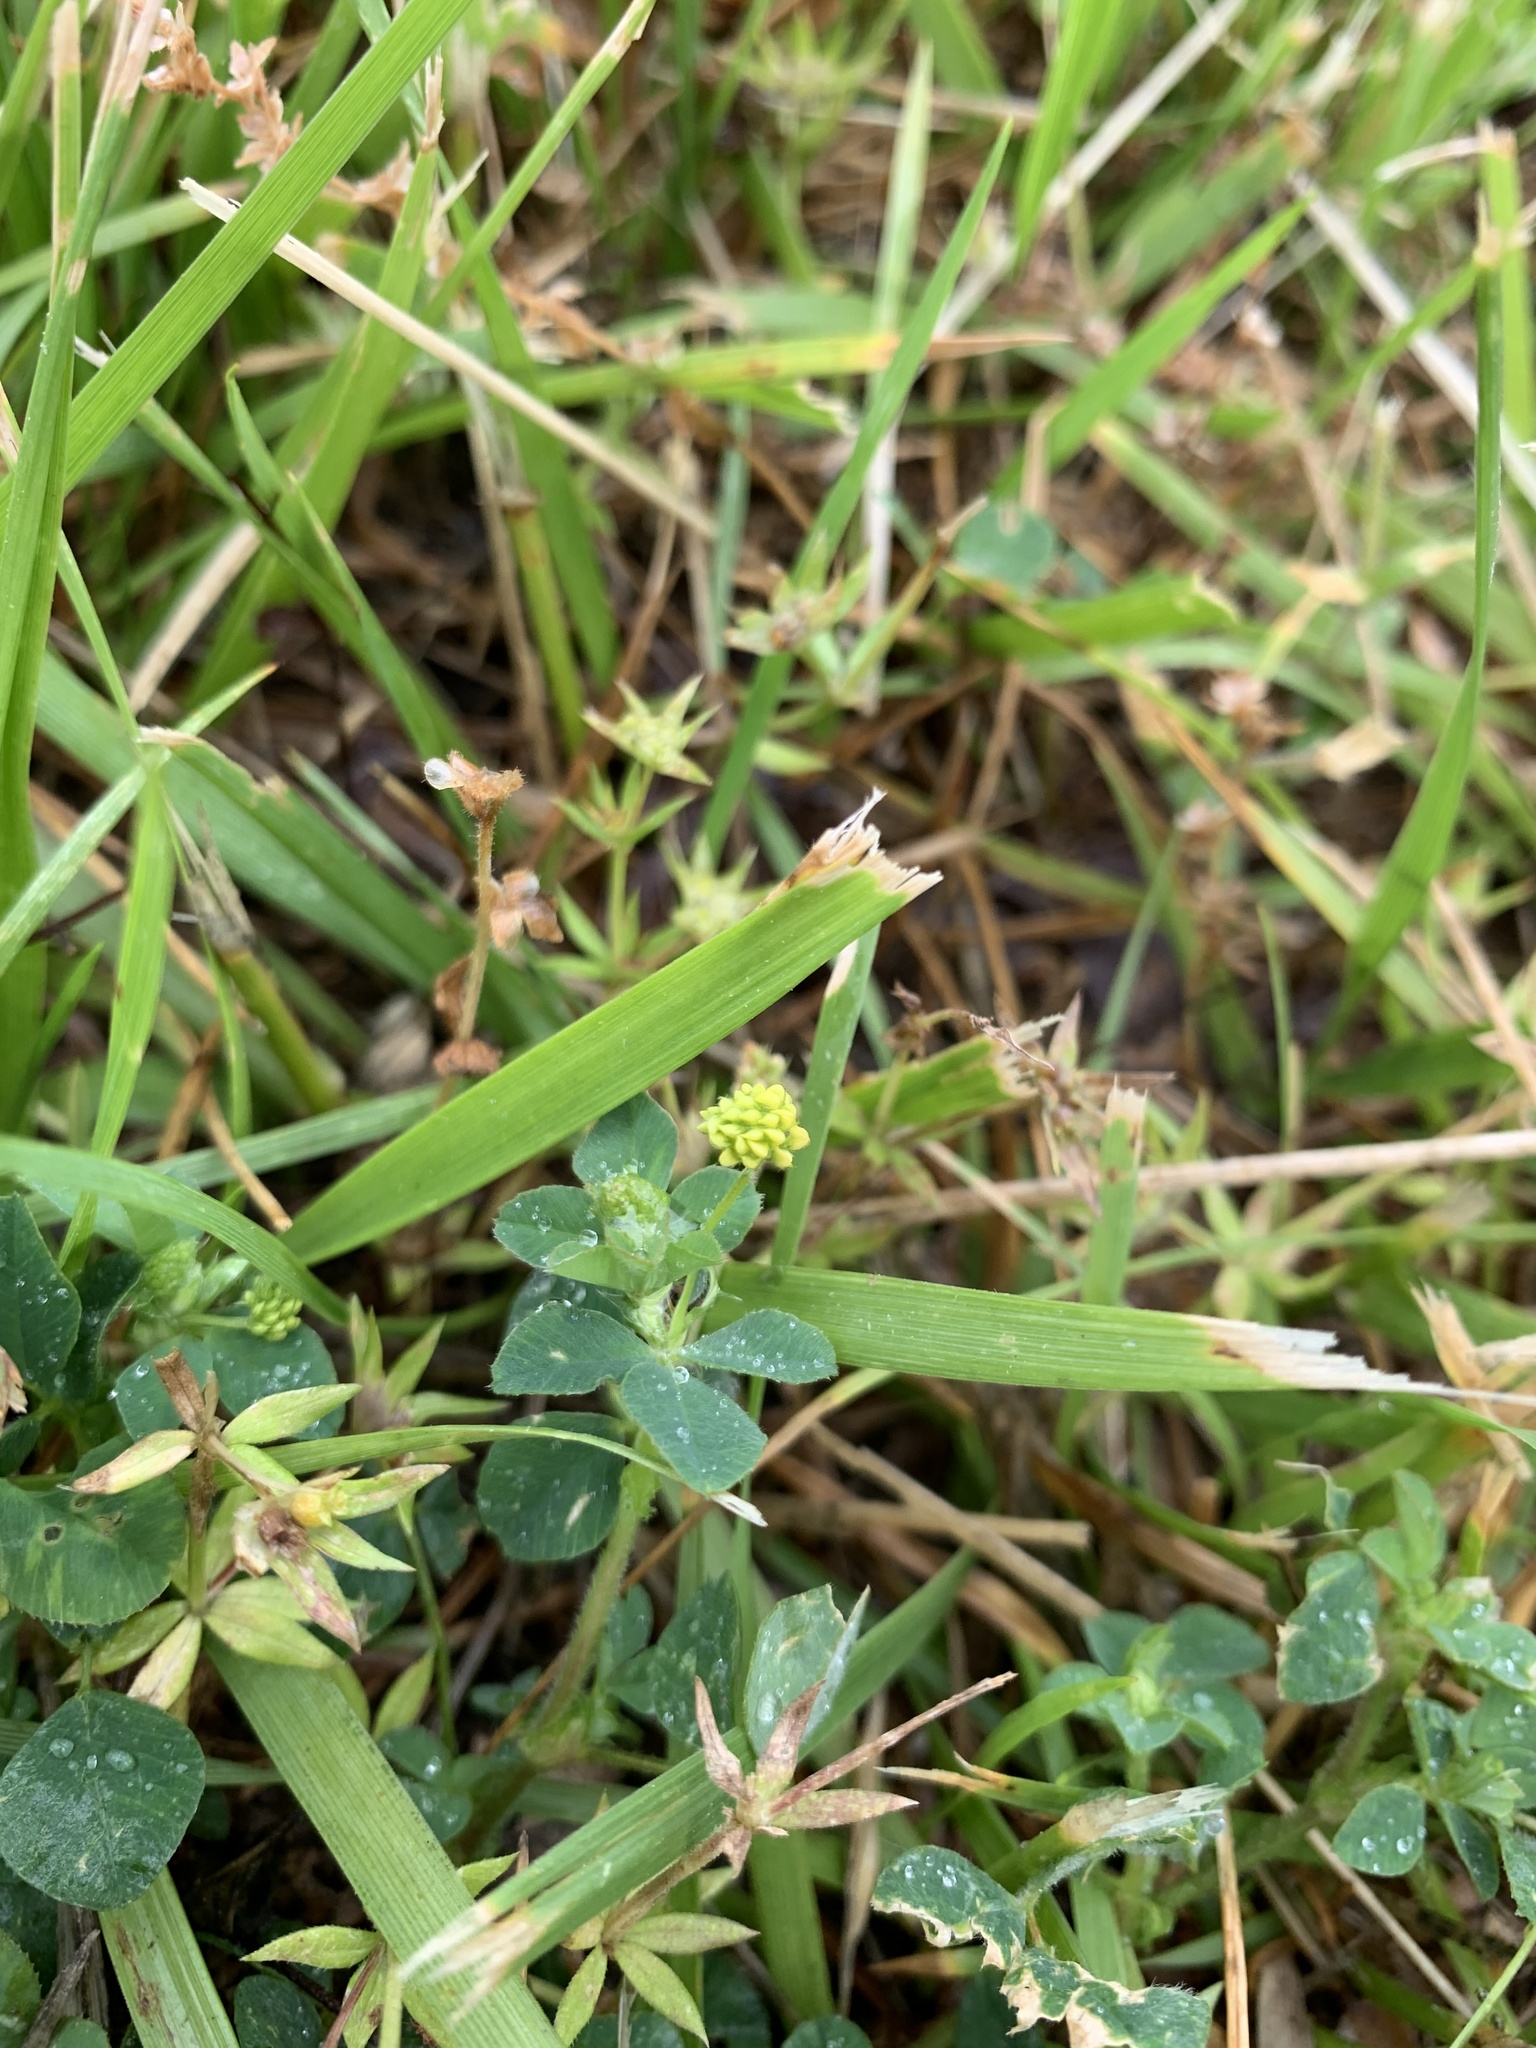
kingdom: Plantae
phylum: Tracheophyta
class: Magnoliopsida
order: Fabales
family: Fabaceae
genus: Medicago
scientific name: Medicago lupulina
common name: Black medick
